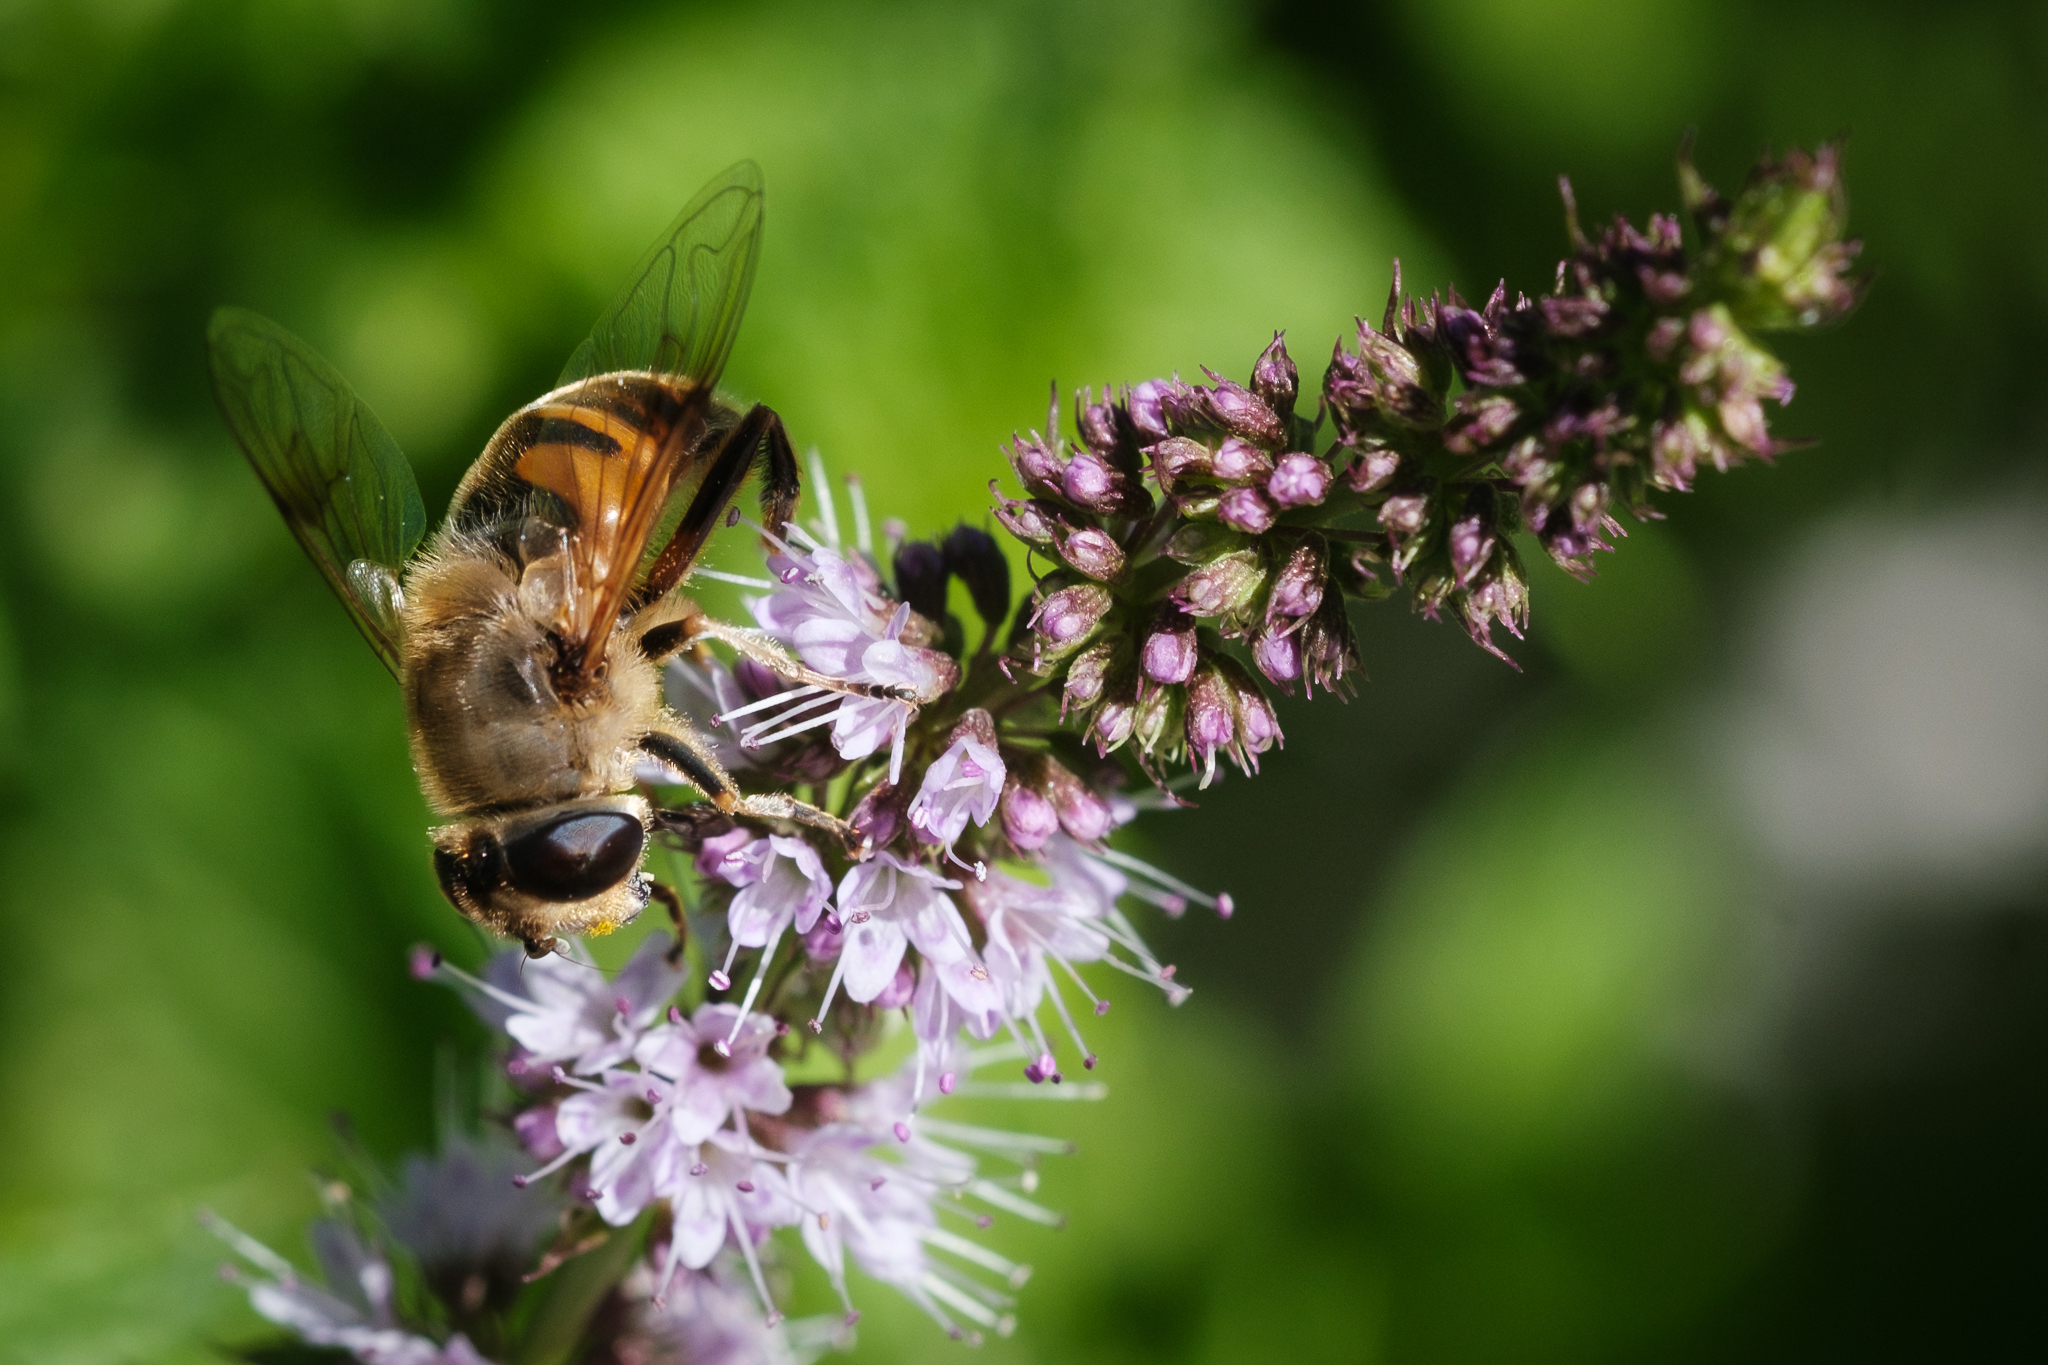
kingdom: Animalia
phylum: Arthropoda
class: Insecta
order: Diptera
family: Syrphidae
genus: Eristalis
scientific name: Eristalis tenax
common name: Drone fly
